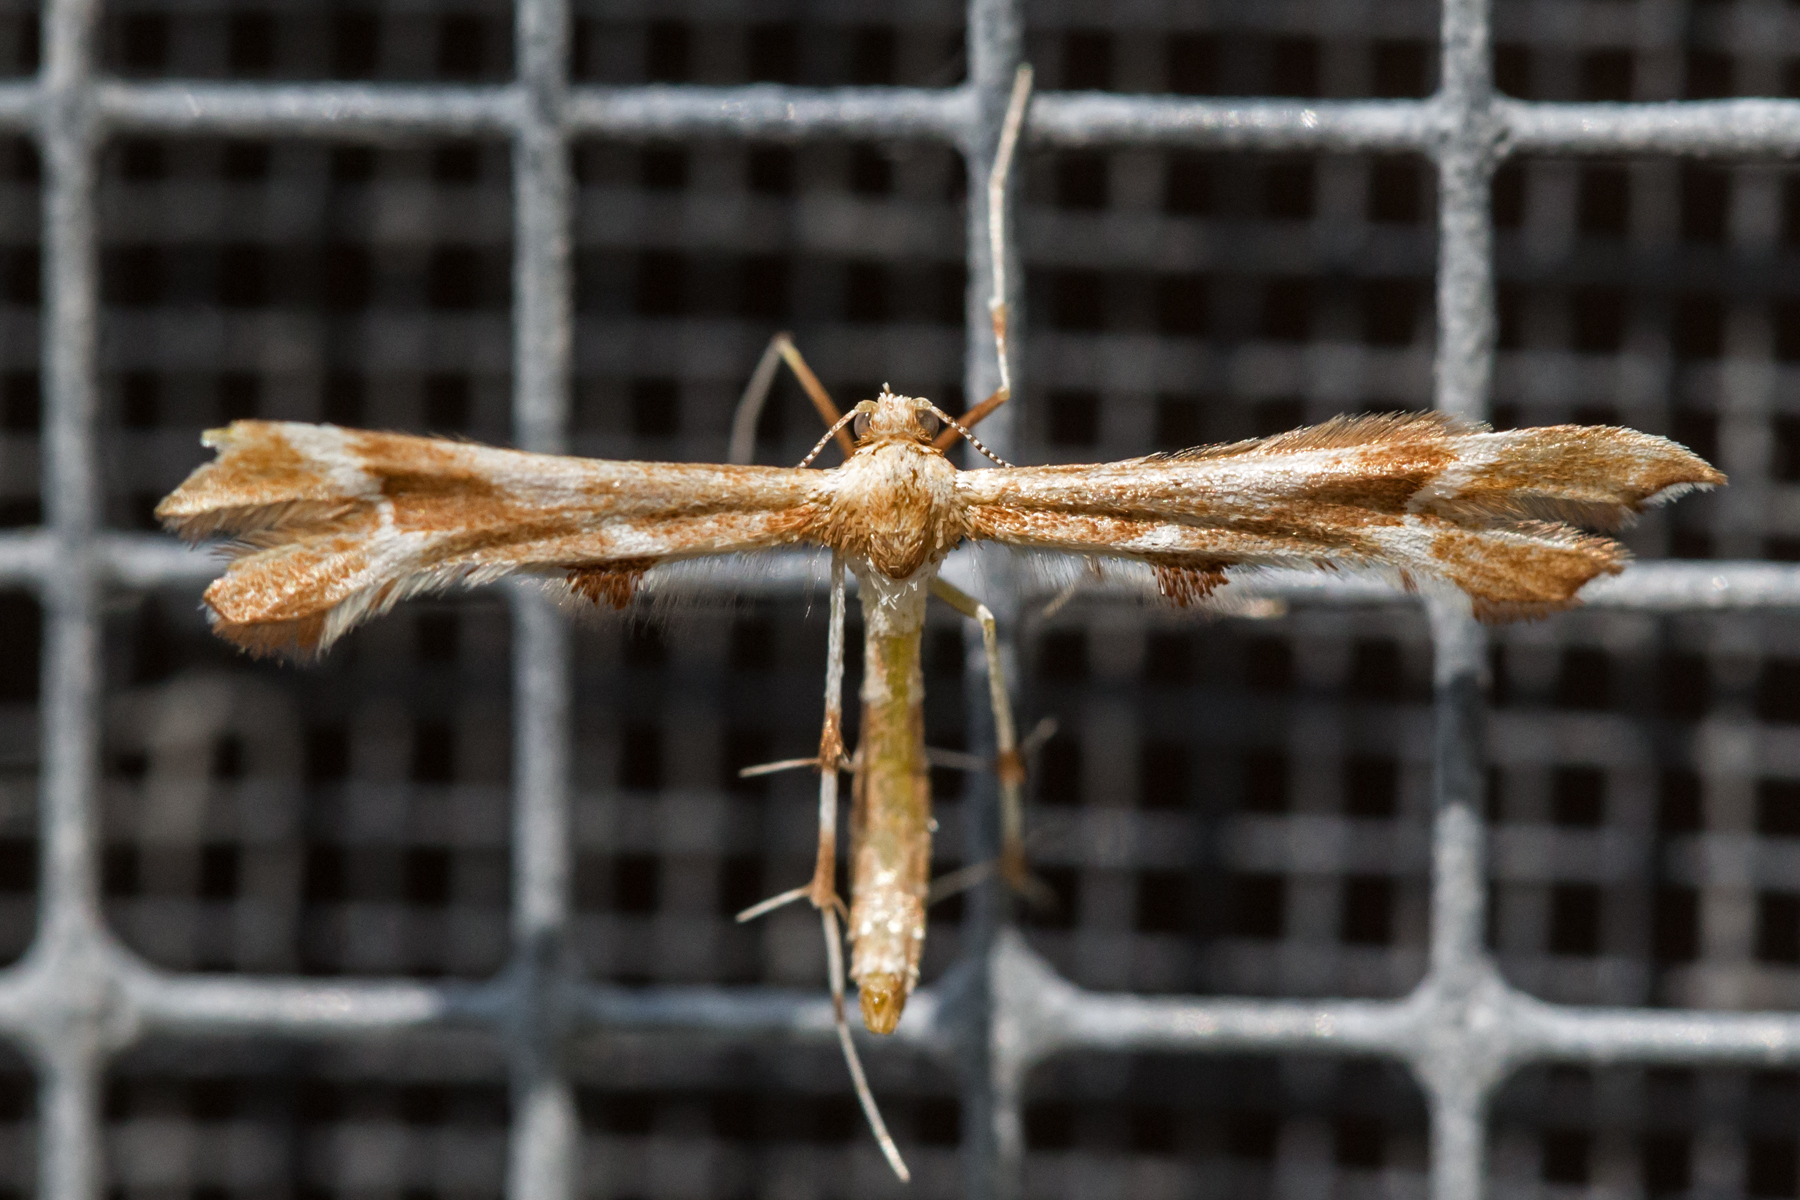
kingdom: Animalia
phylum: Arthropoda
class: Insecta
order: Lepidoptera
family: Pterophoridae
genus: Cnaemidophorus
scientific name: Cnaemidophorus rhododactyla
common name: Rose plume
